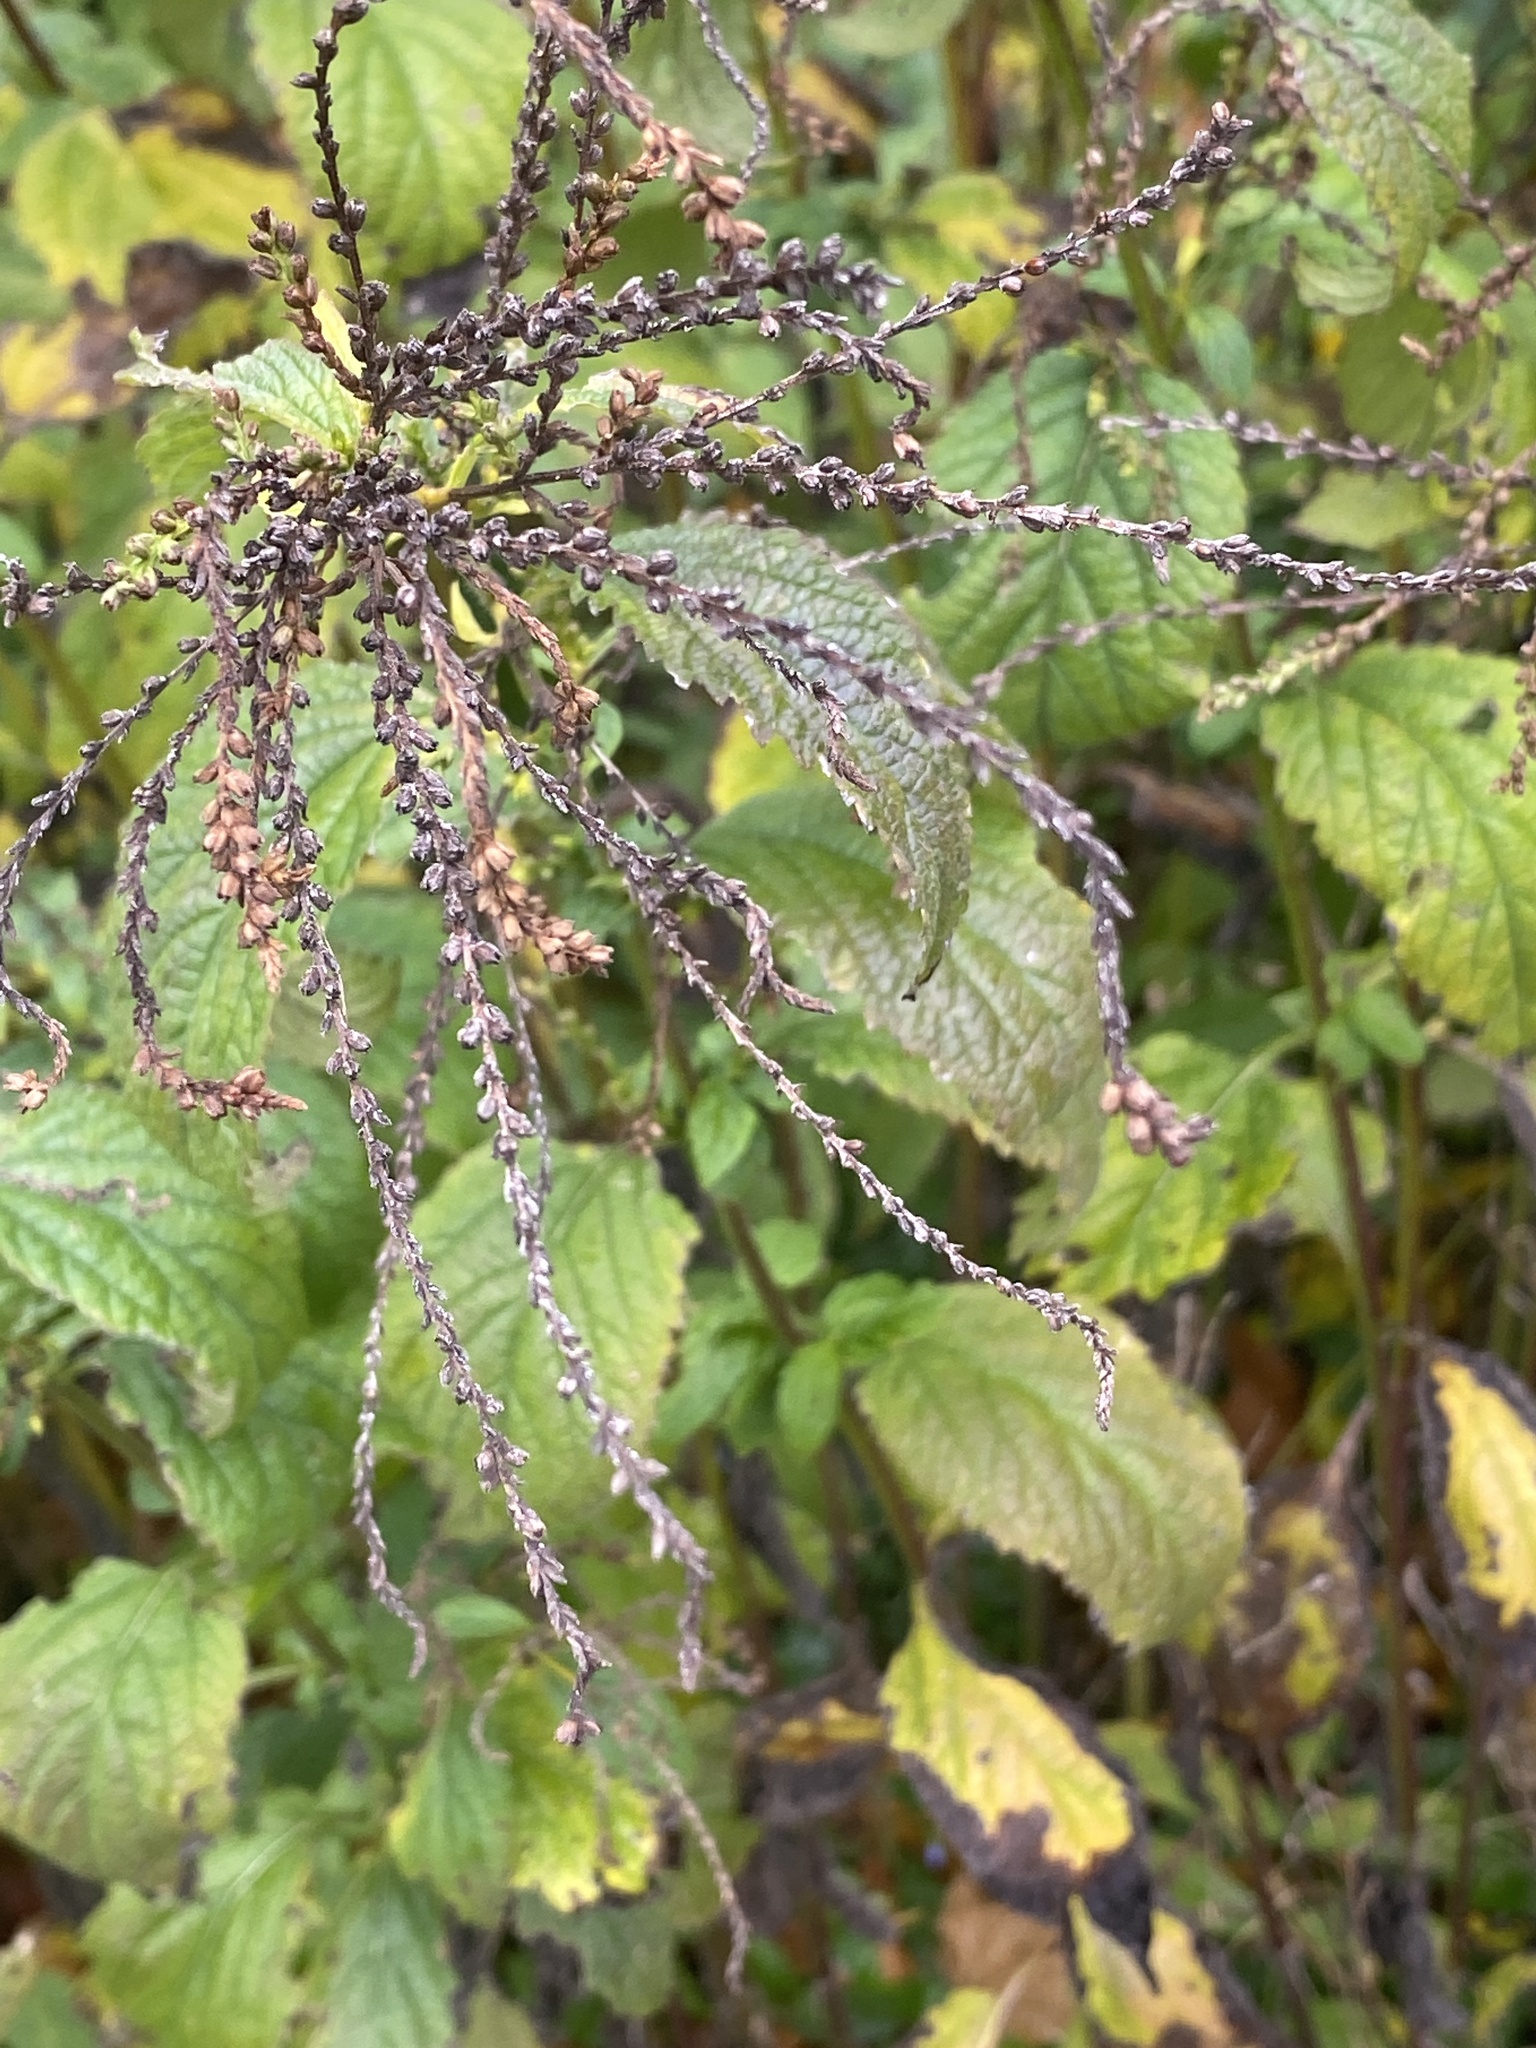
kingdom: Plantae
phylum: Tracheophyta
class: Magnoliopsida
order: Lamiales
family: Verbenaceae
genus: Verbena
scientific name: Verbena urticifolia
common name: Nettle-leaved vervain
